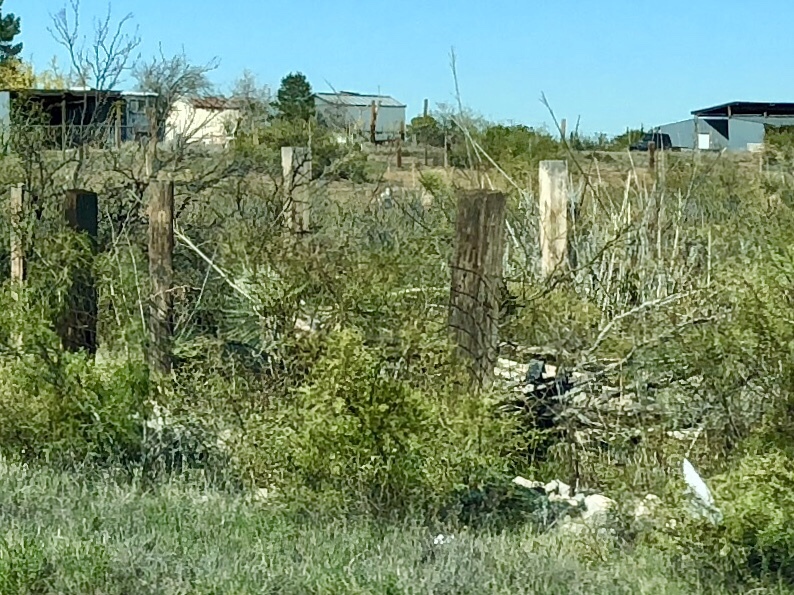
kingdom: Plantae
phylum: Tracheophyta
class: Magnoliopsida
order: Zygophyllales
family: Zygophyllaceae
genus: Larrea
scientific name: Larrea tridentata
